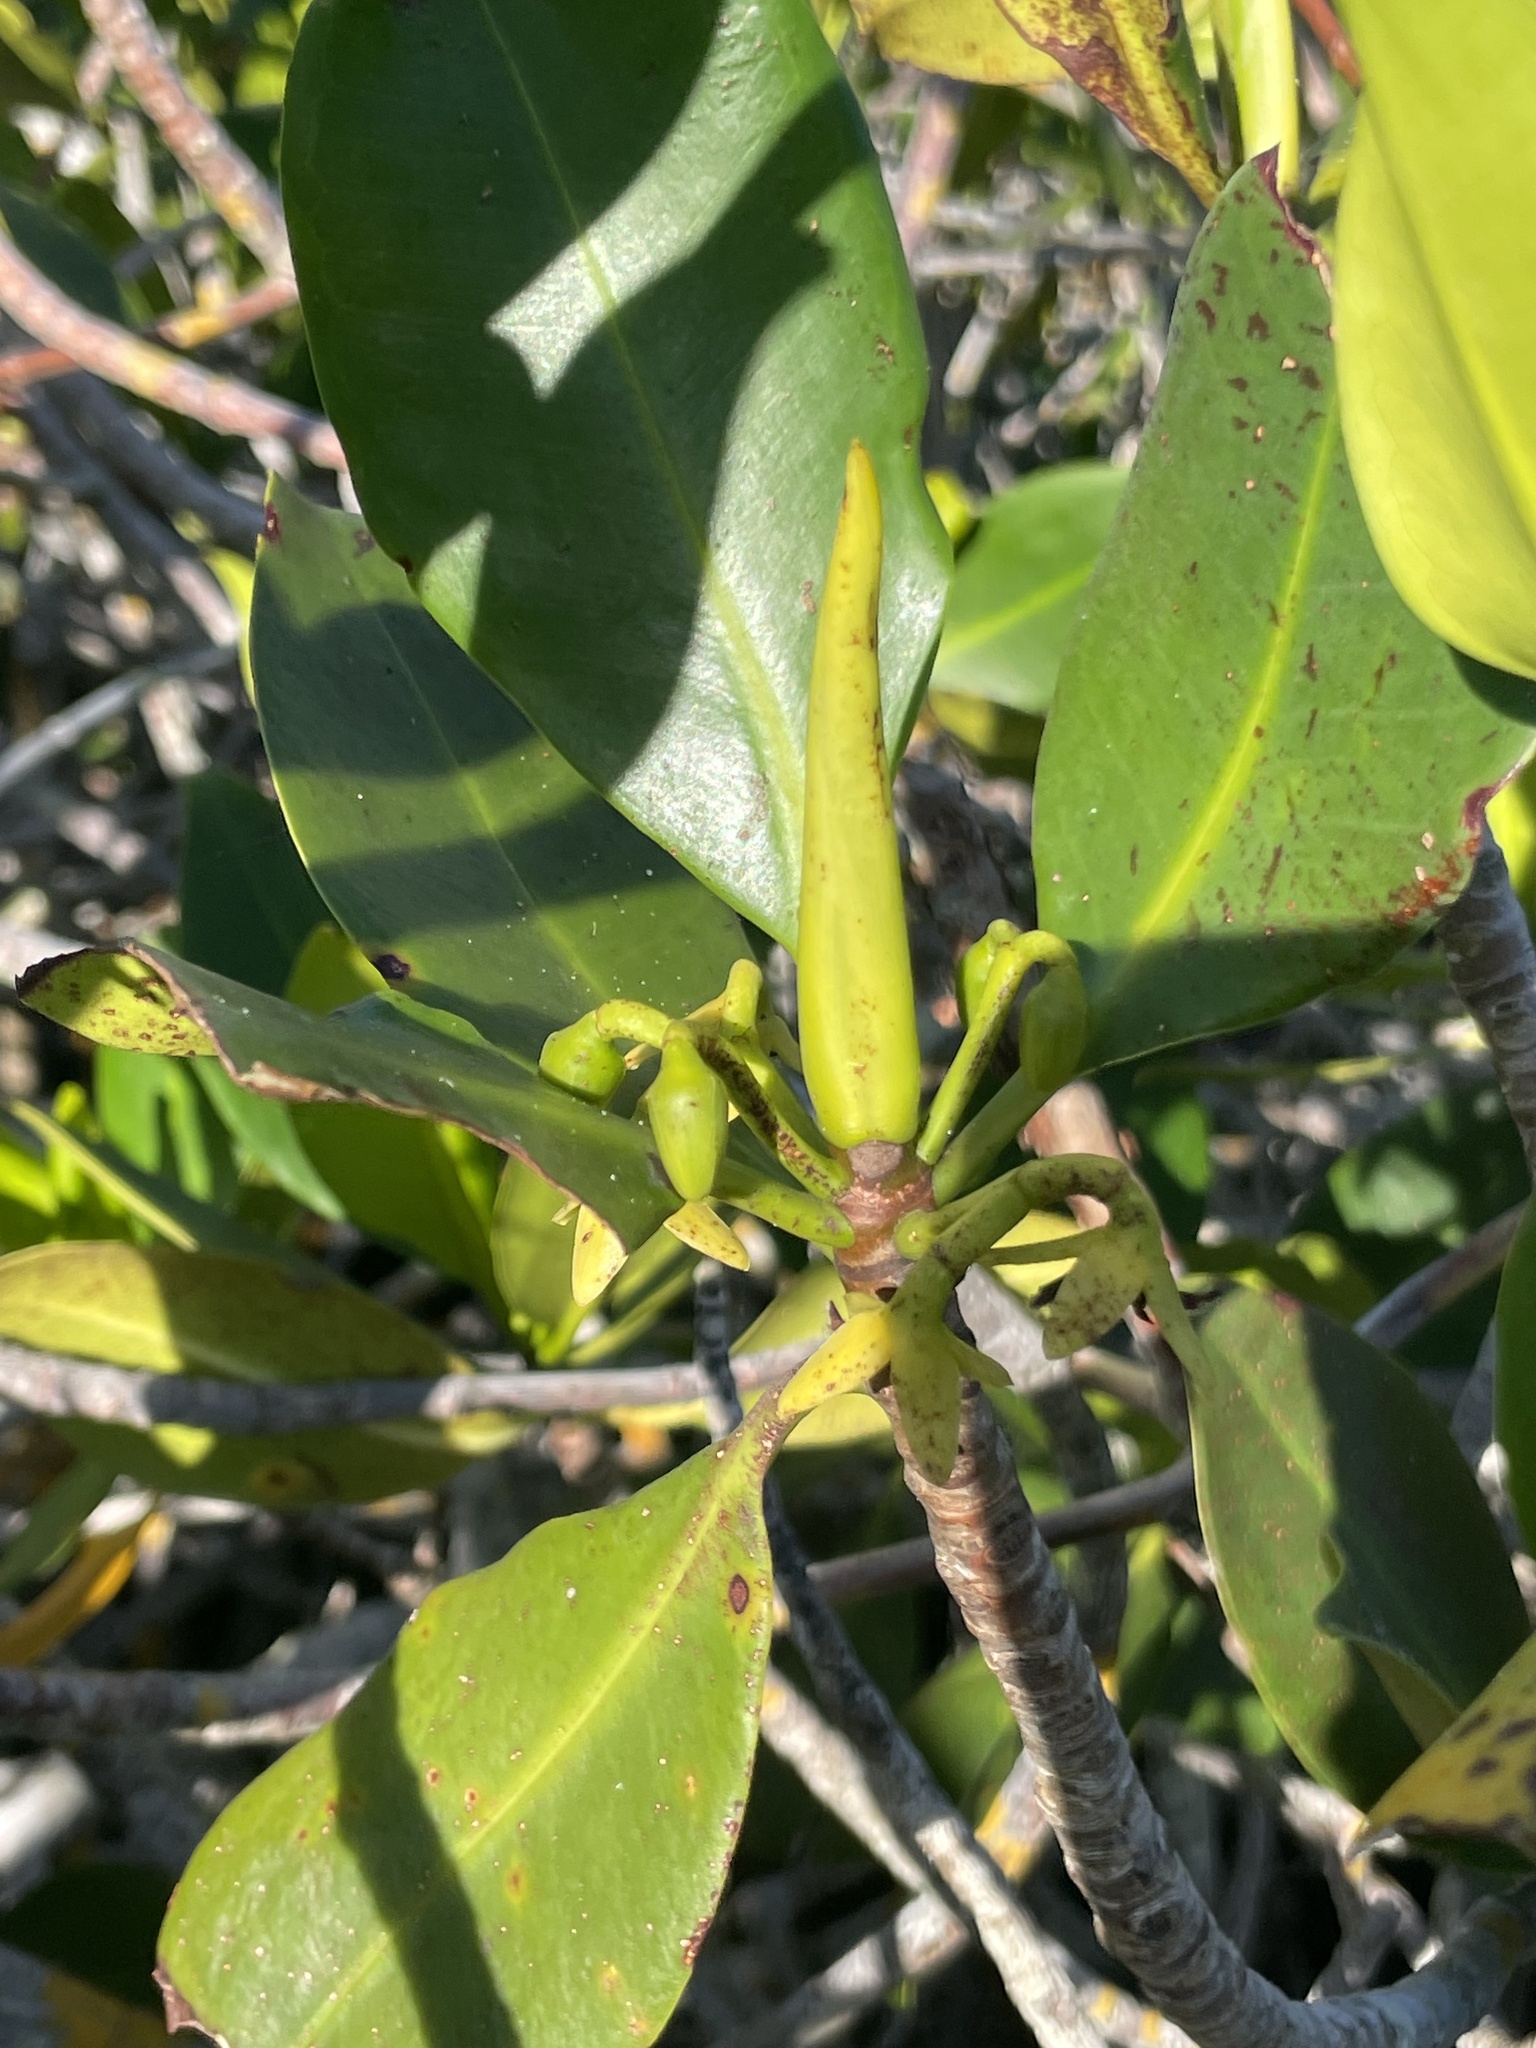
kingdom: Plantae
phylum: Tracheophyta
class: Magnoliopsida
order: Malpighiales
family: Rhizophoraceae
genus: Rhizophora
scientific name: Rhizophora mangle
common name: Red mangrove
